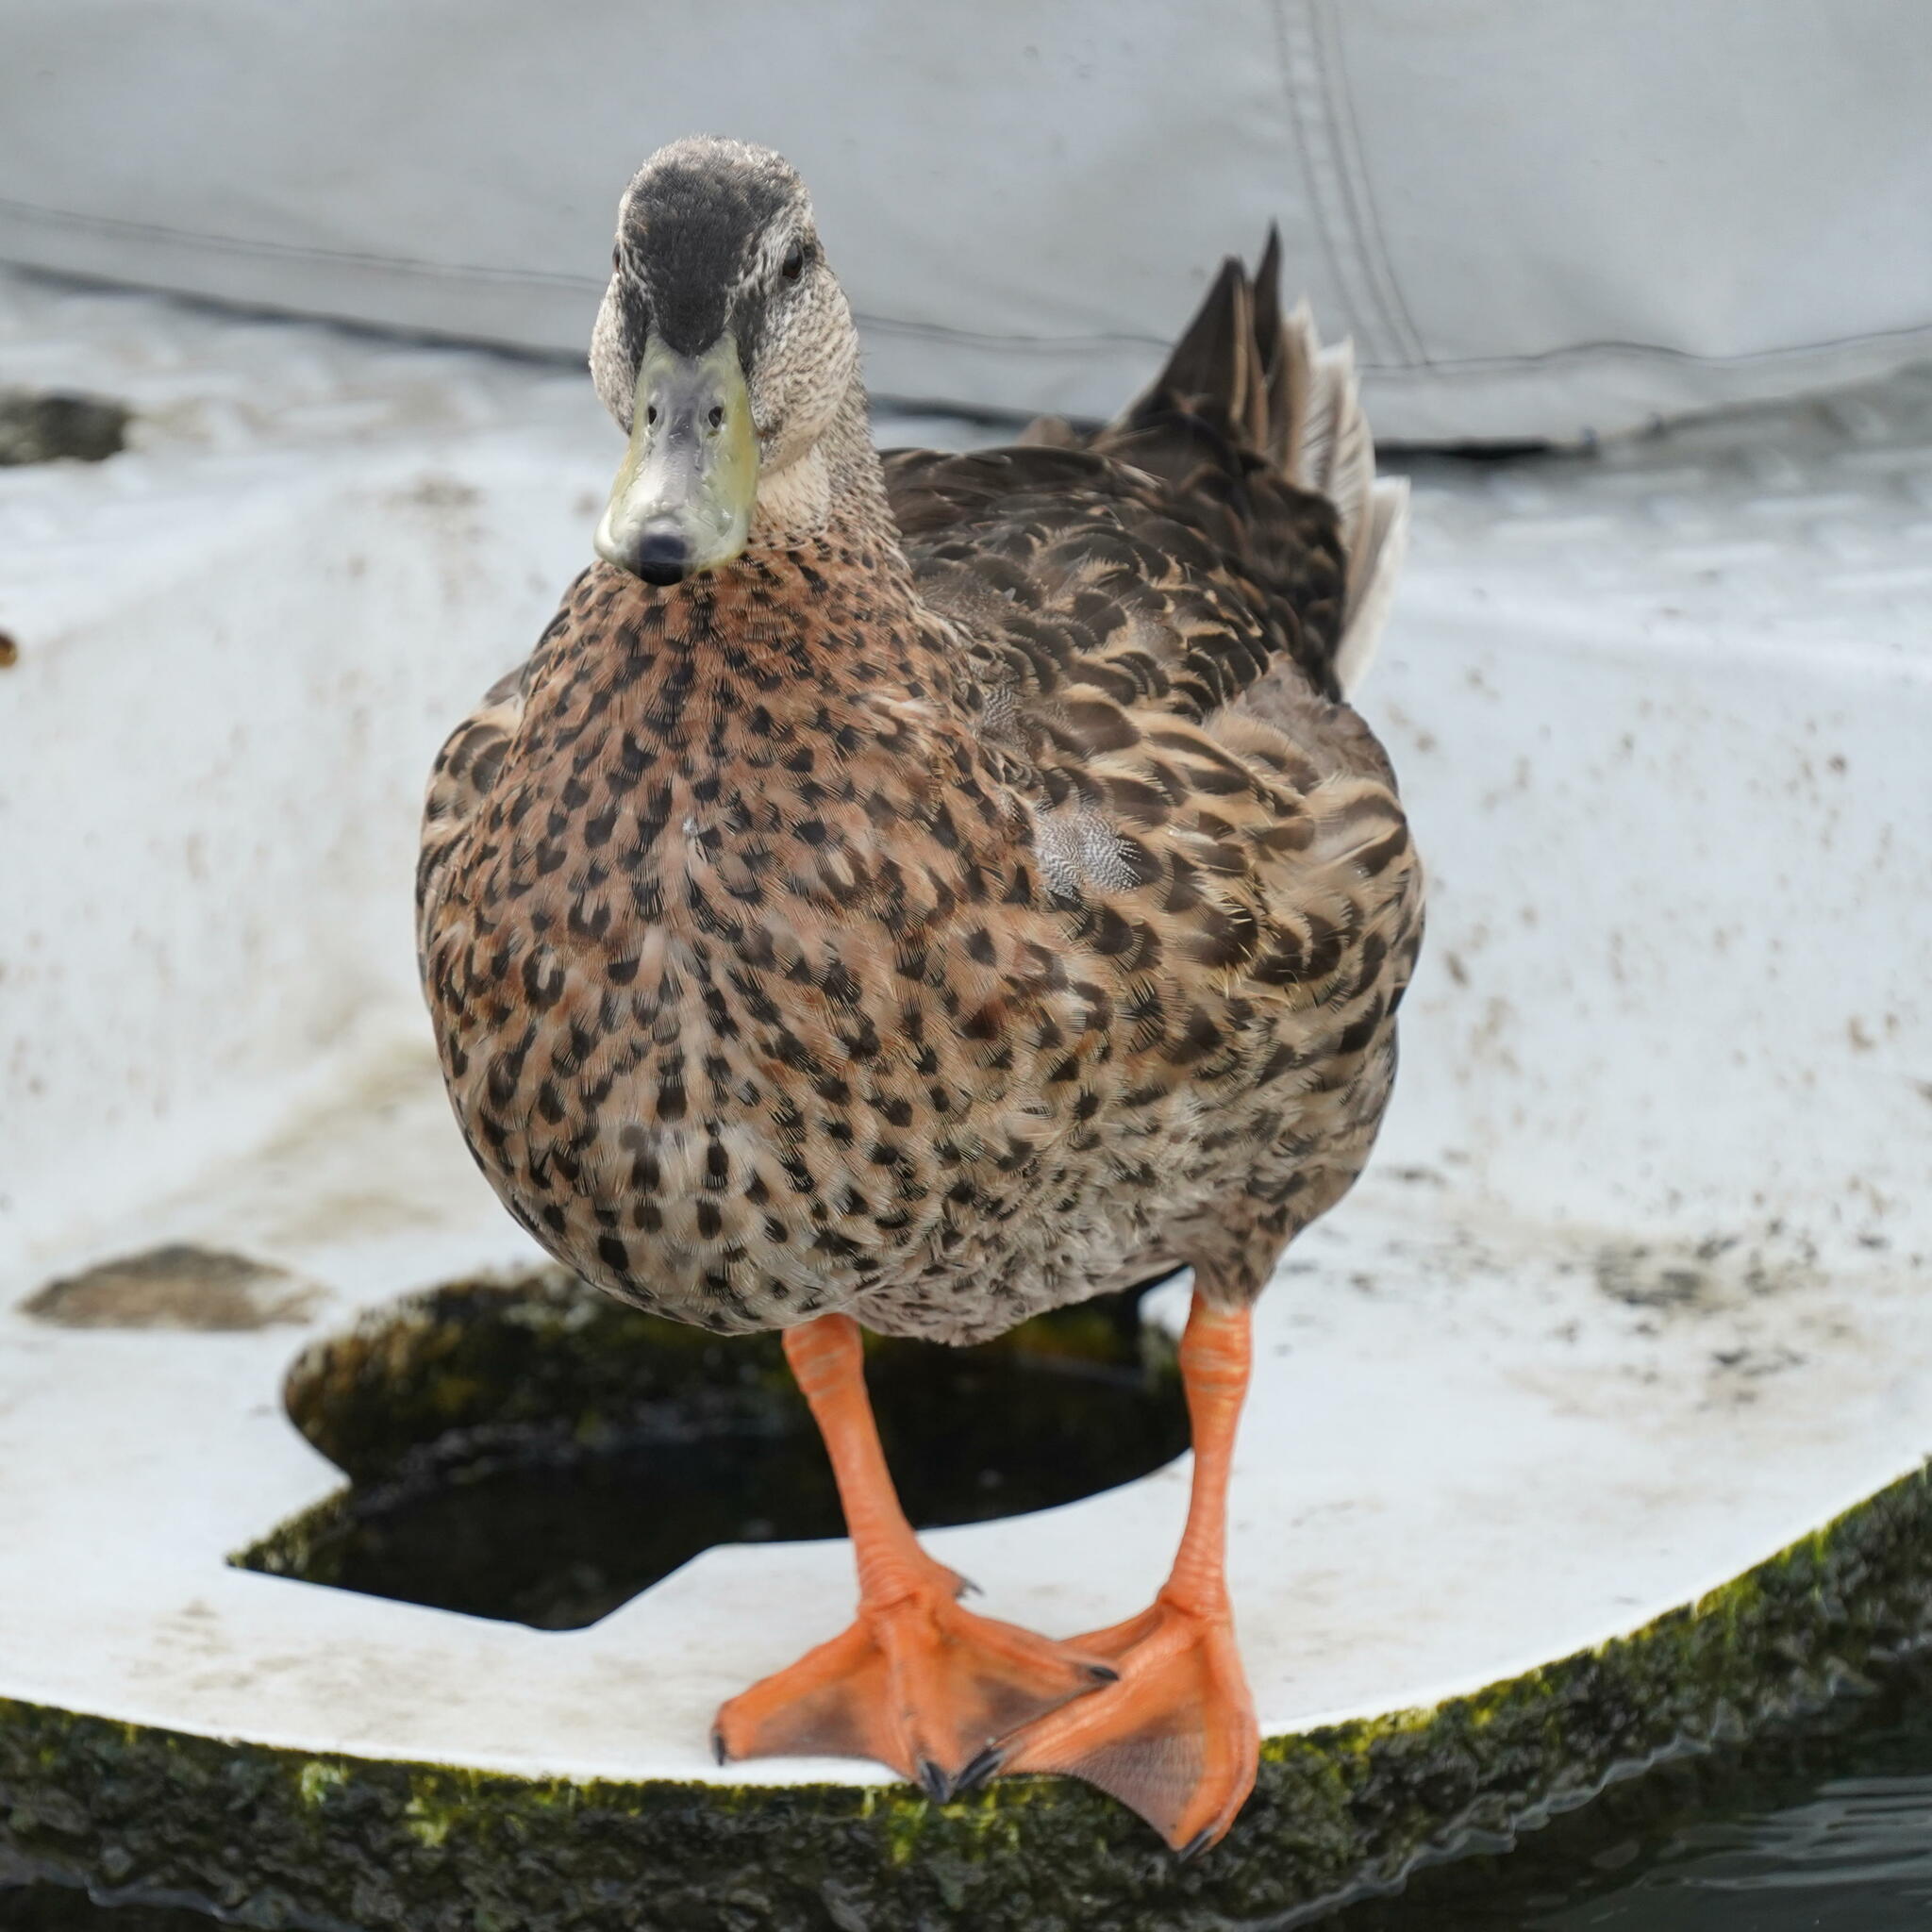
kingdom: Animalia
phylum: Chordata
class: Aves
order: Anseriformes
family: Anatidae
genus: Anas
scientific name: Anas platyrhynchos
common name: Mallard
